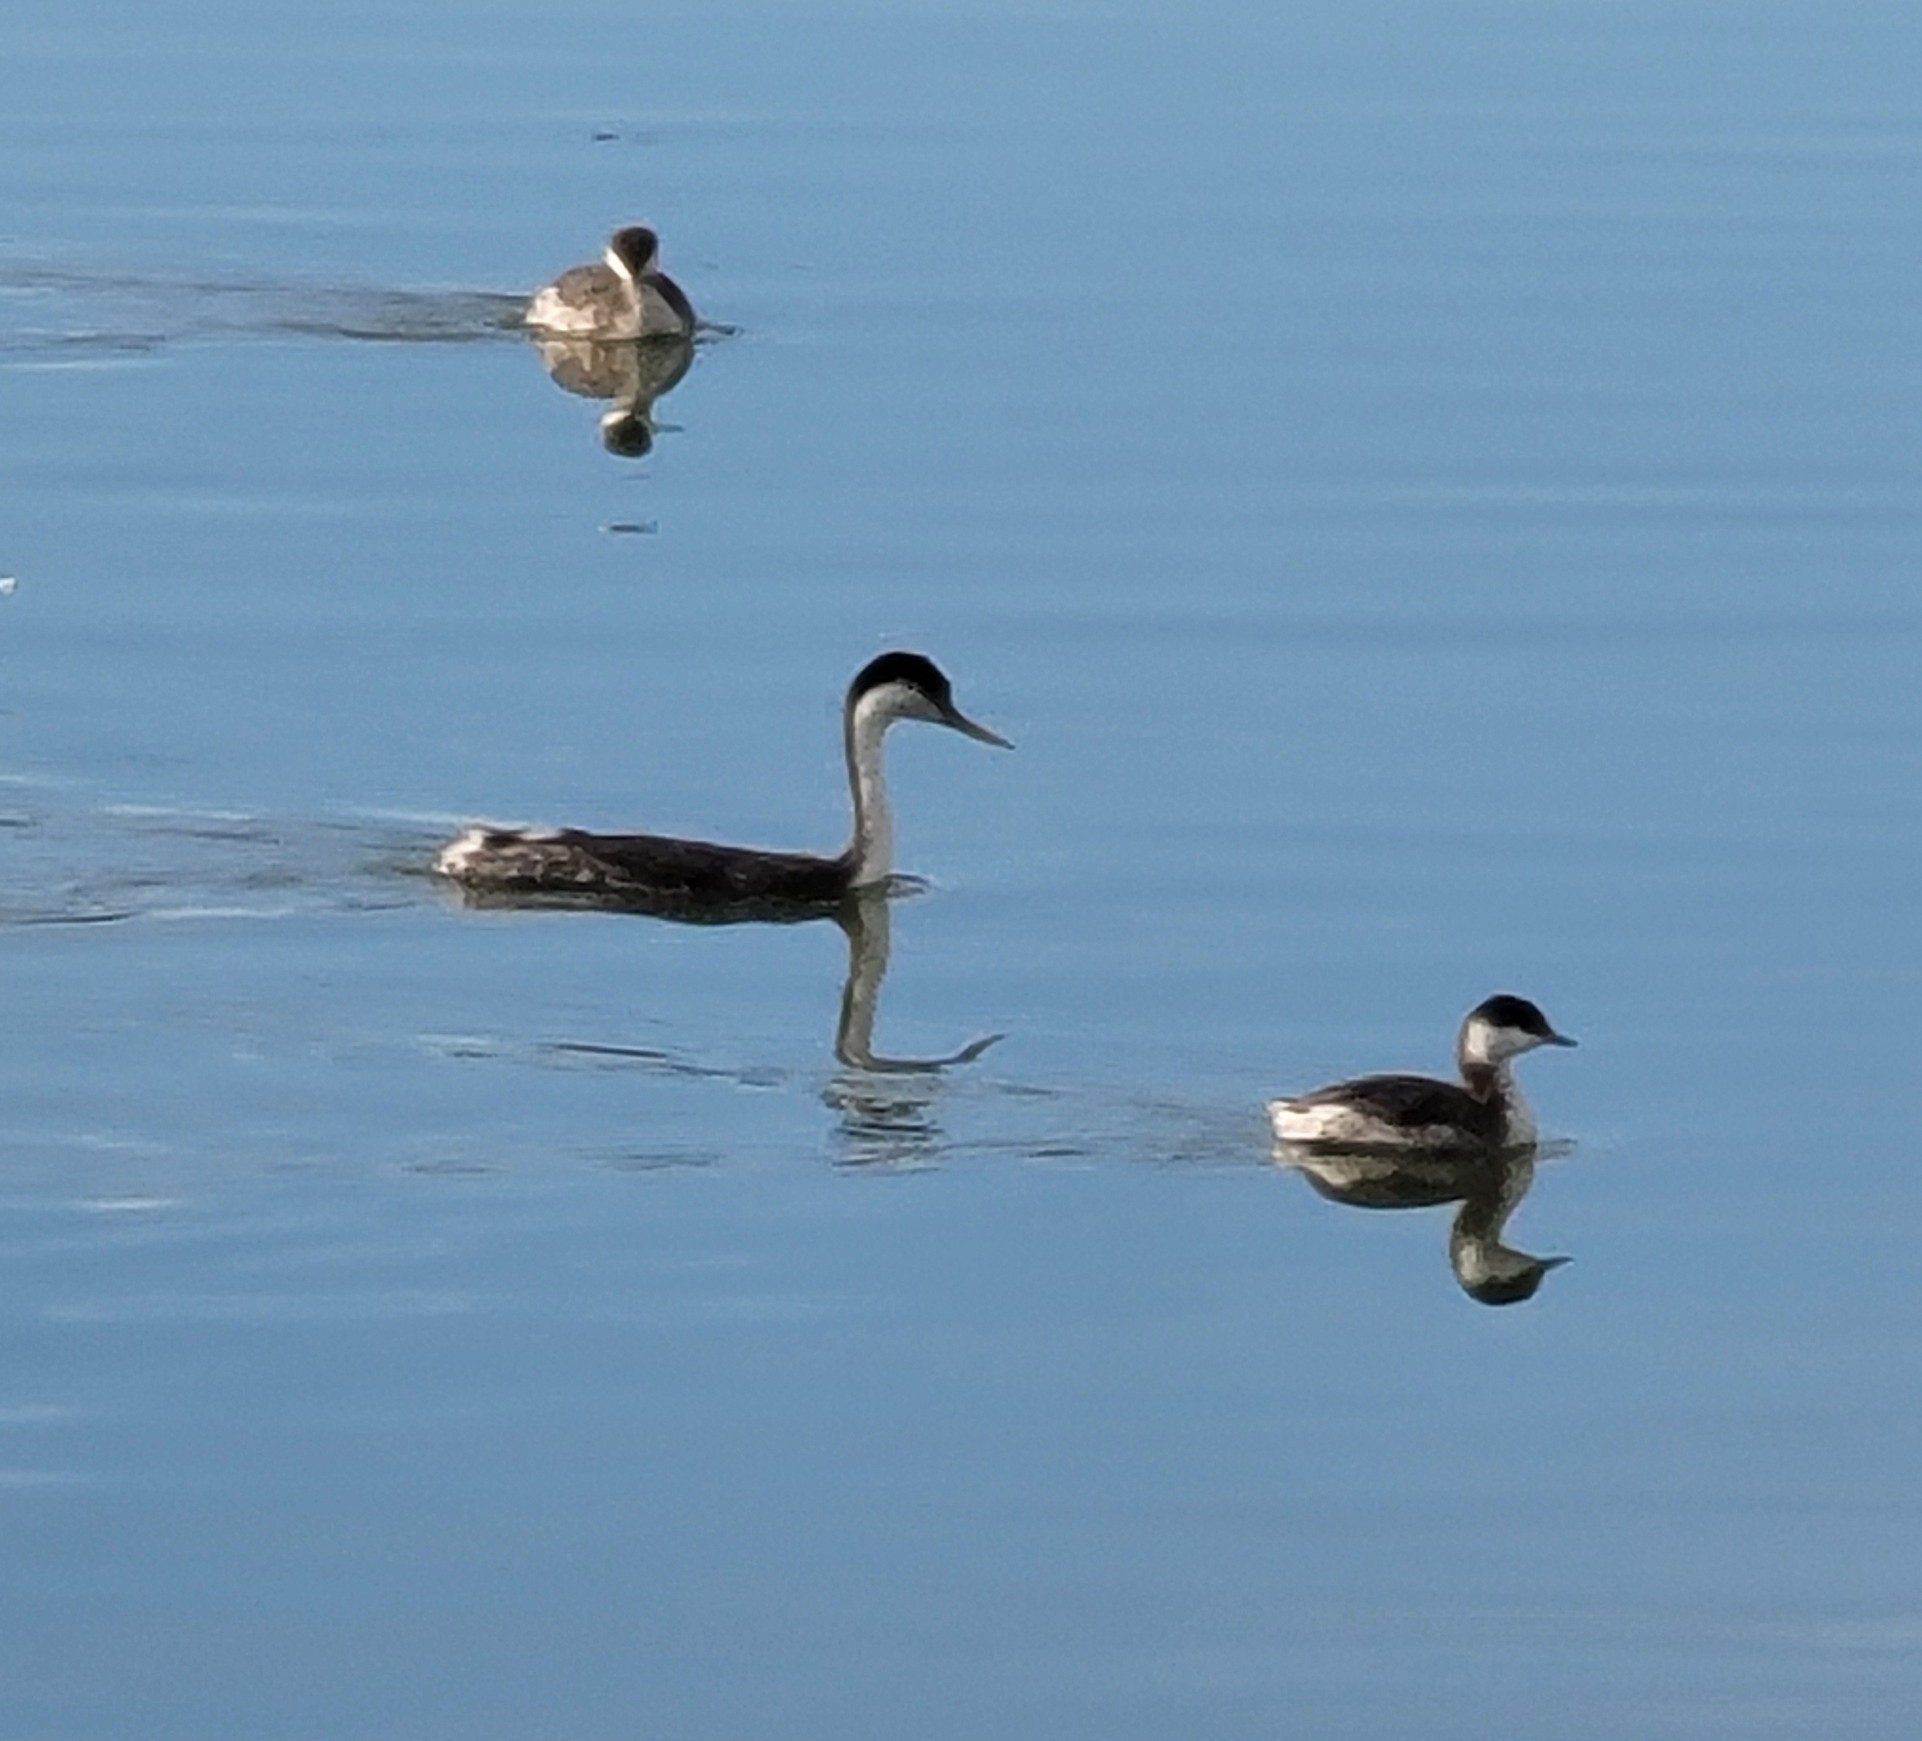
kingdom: Animalia
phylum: Chordata
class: Aves
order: Podicipediformes
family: Podicipedidae
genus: Aechmophorus
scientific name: Aechmophorus occidentalis
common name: Western grebe
